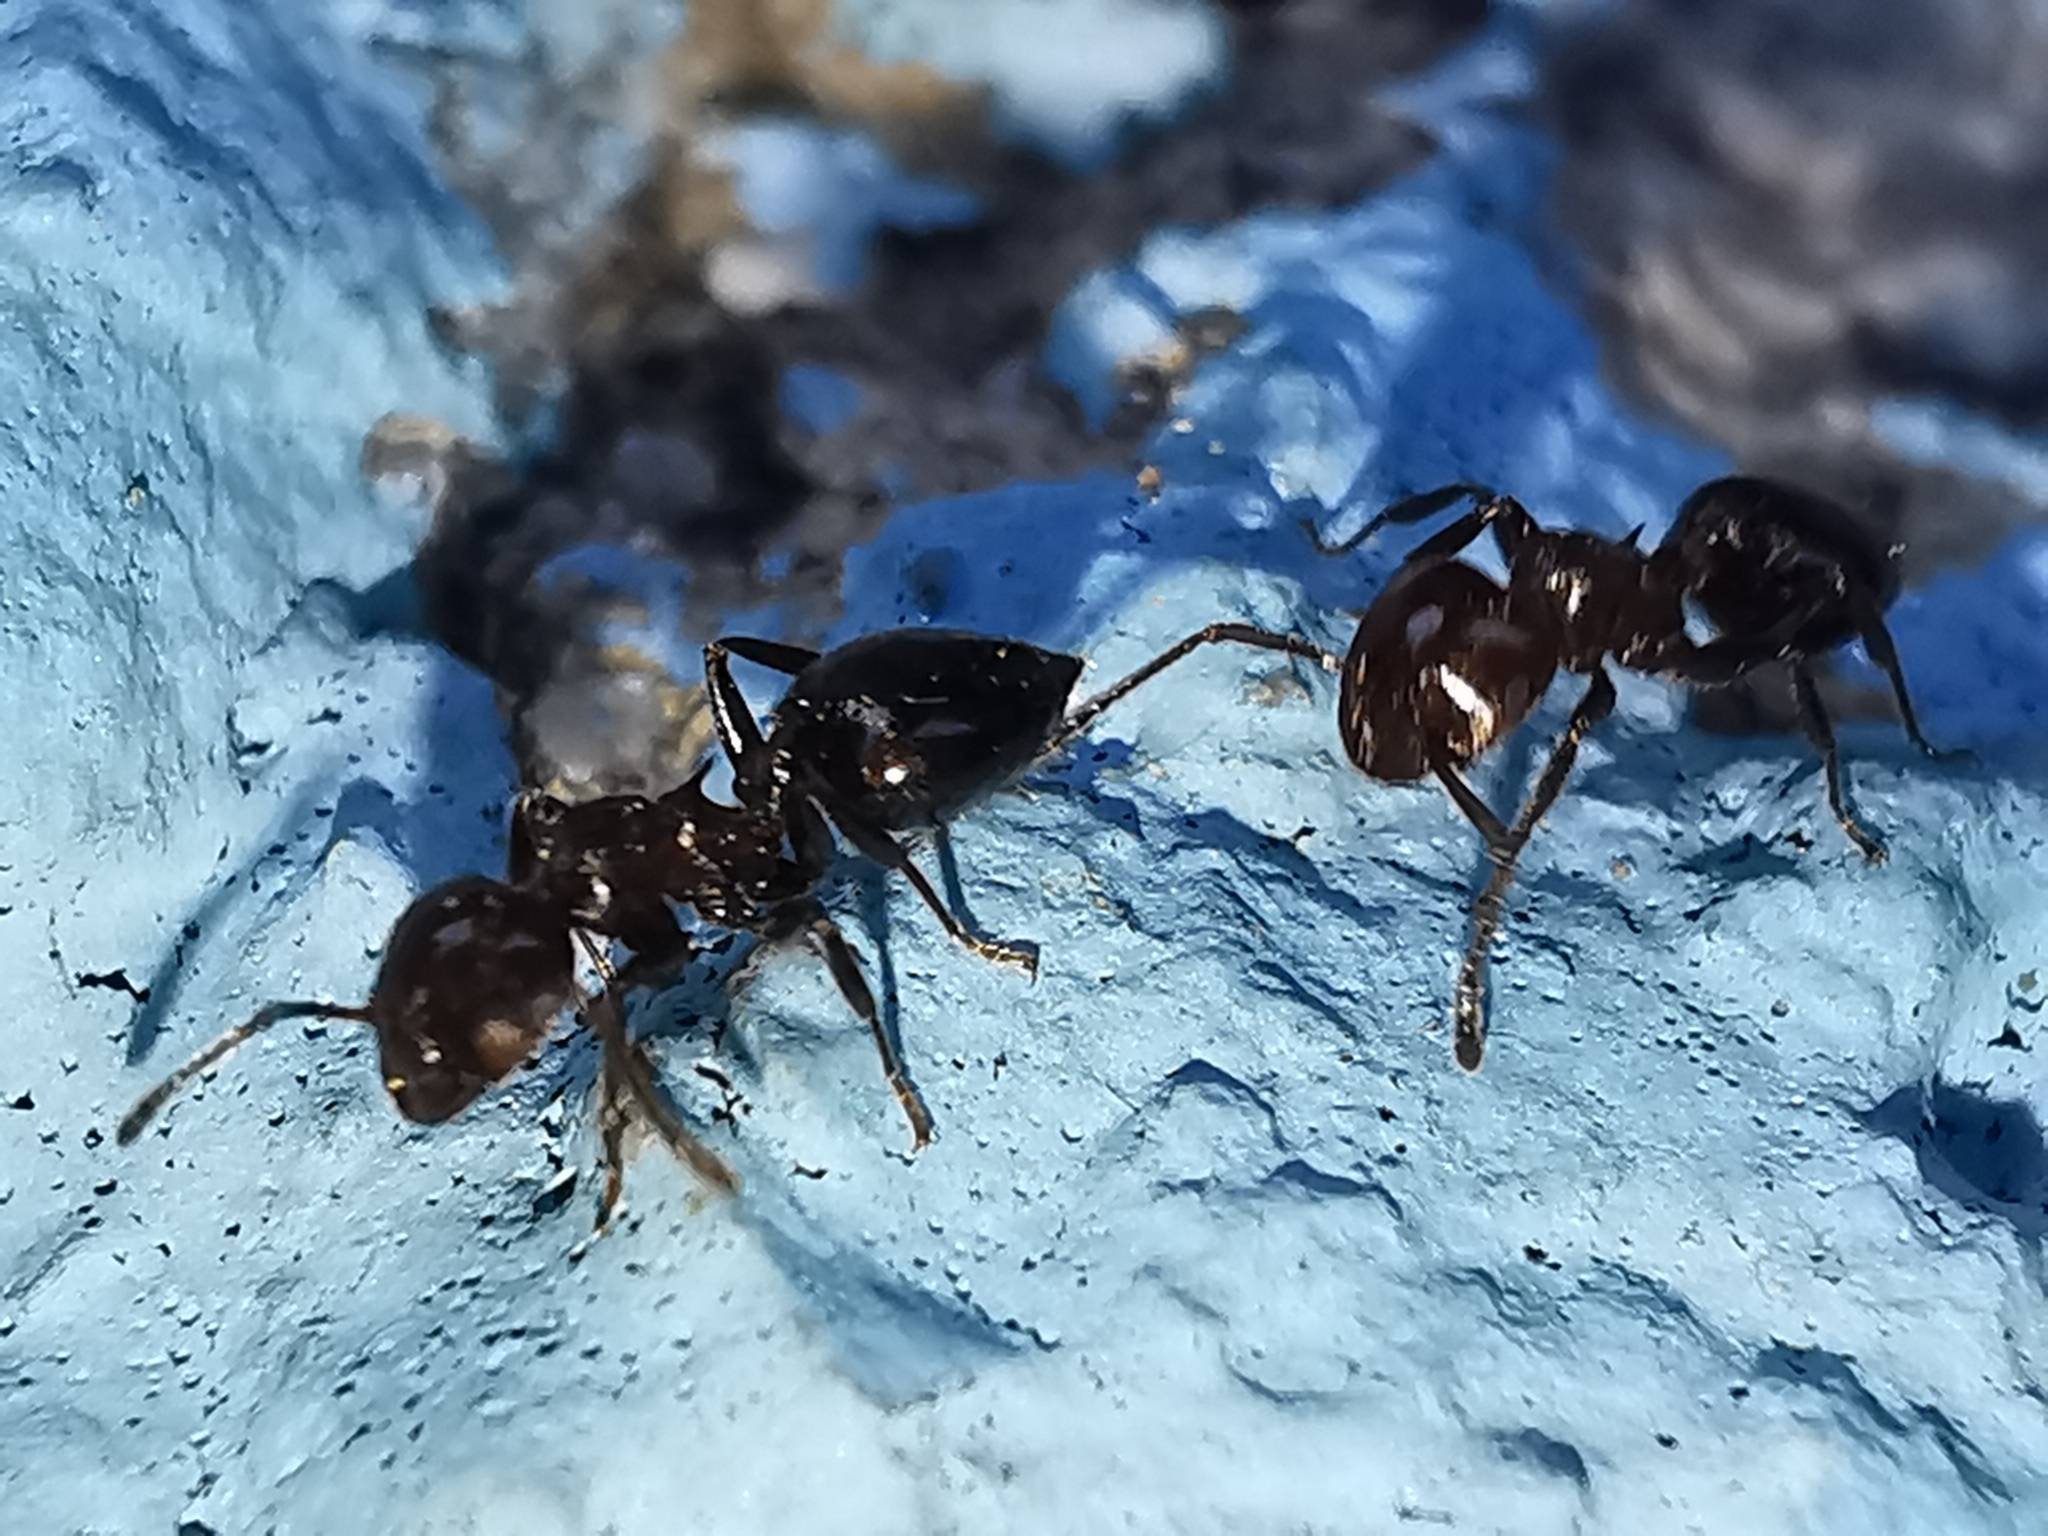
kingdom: Animalia
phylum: Arthropoda
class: Insecta
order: Hymenoptera
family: Formicidae
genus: Crematogaster
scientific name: Crematogaster ionia
